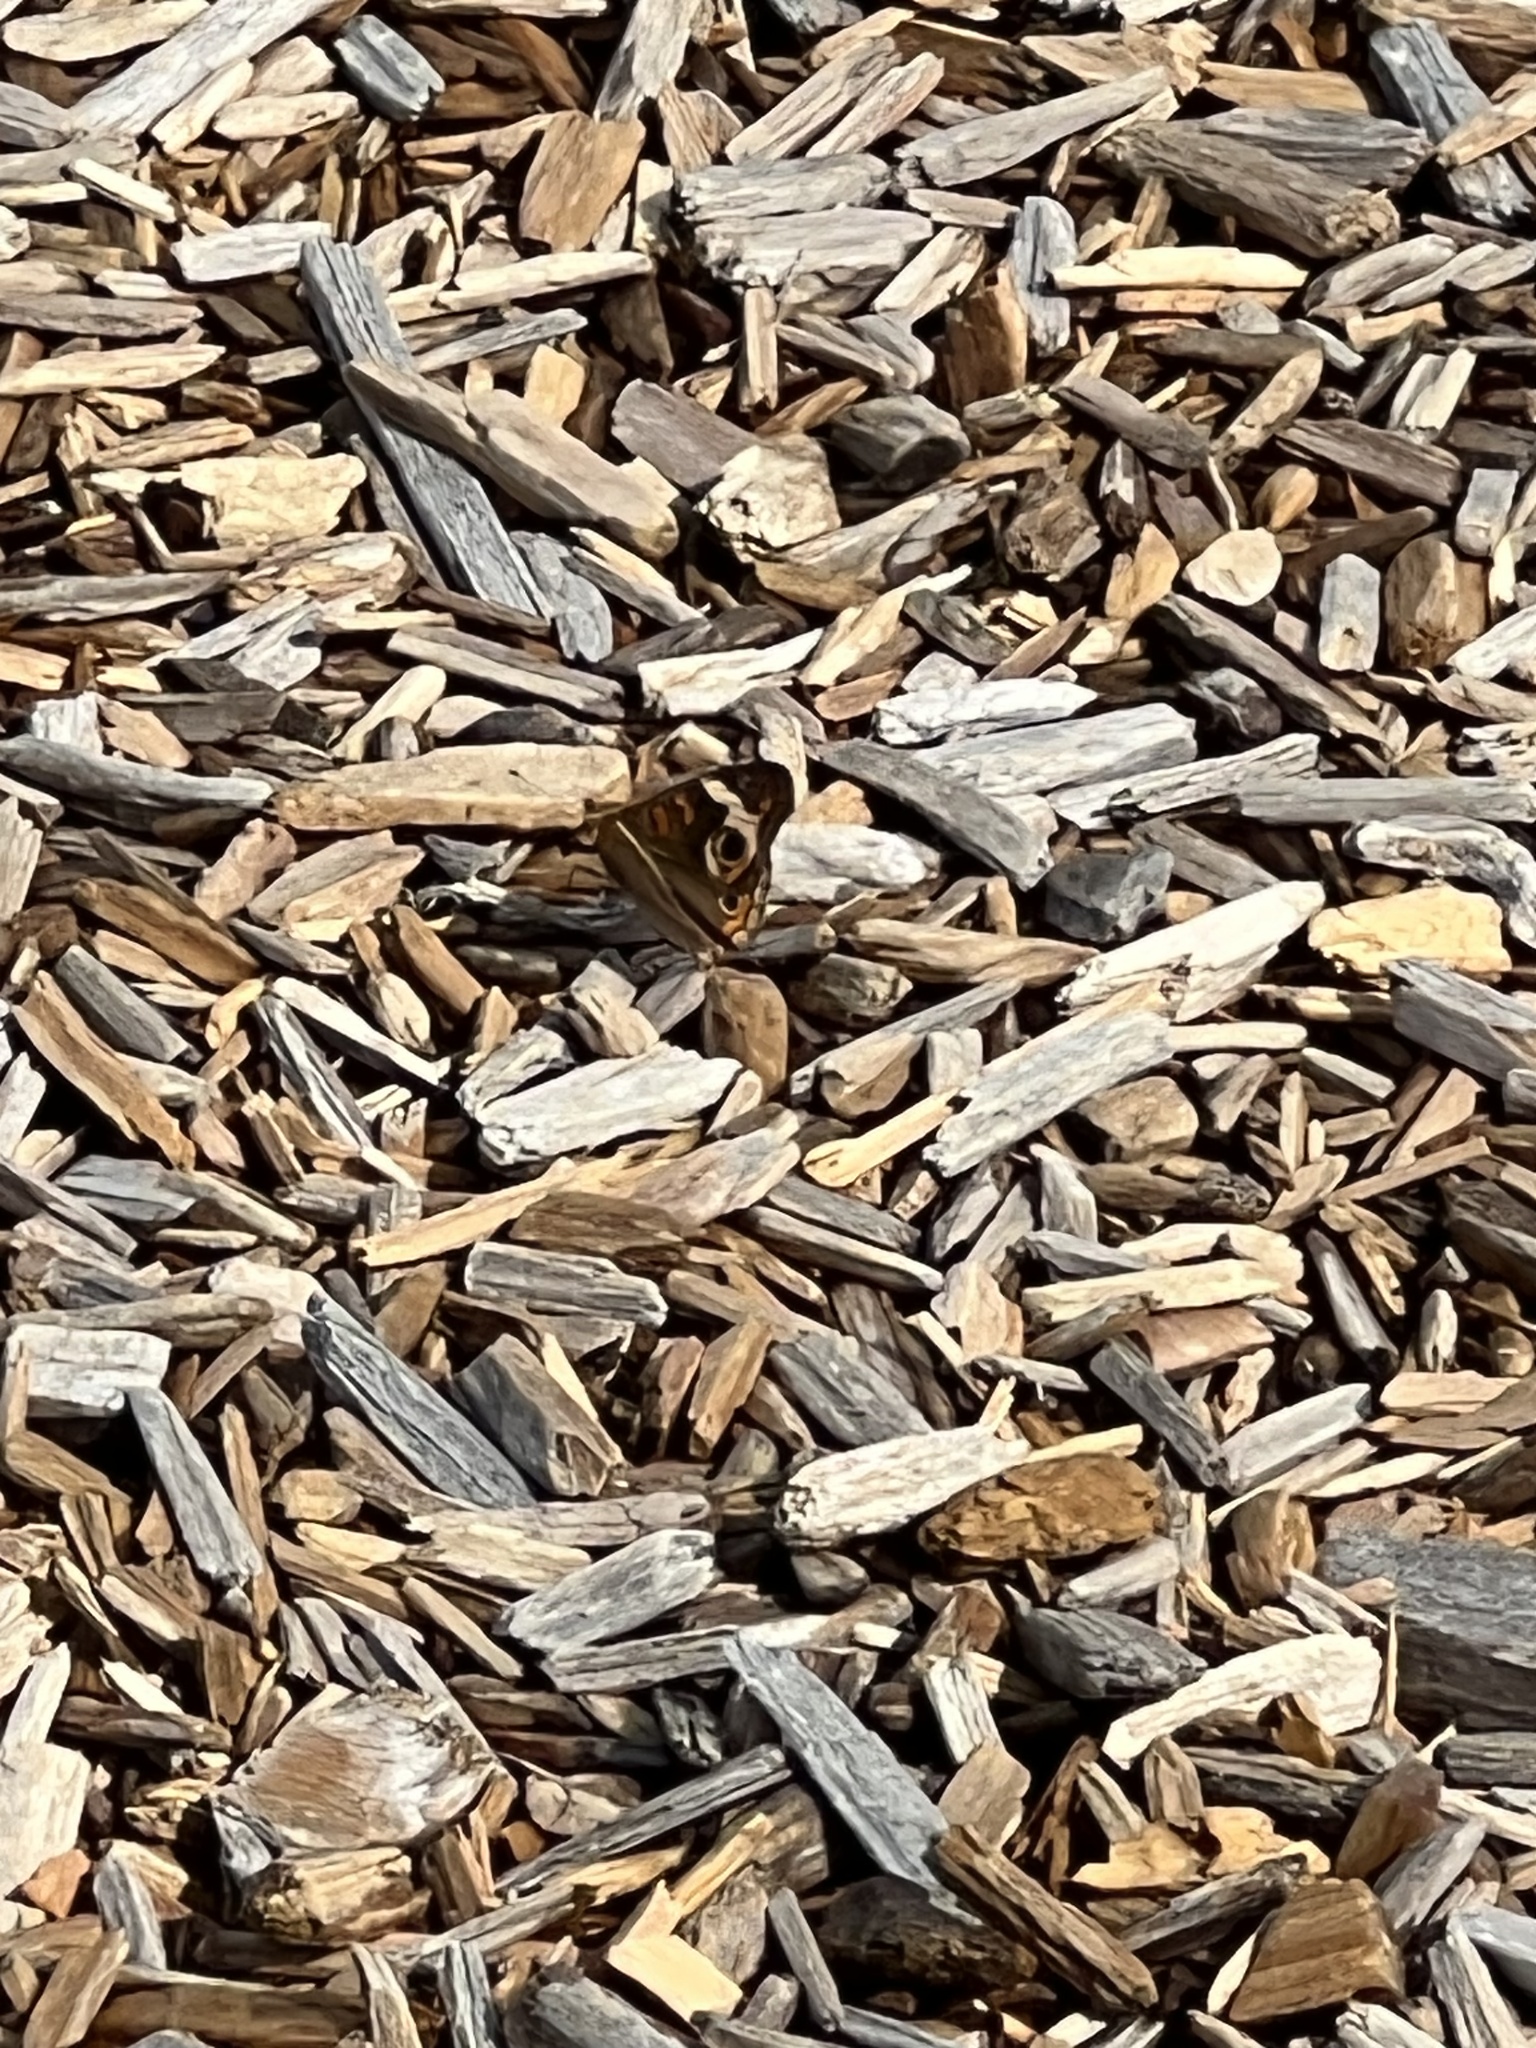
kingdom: Animalia
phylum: Arthropoda
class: Insecta
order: Lepidoptera
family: Nymphalidae
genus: Junonia
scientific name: Junonia coenia
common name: Common buckeye
